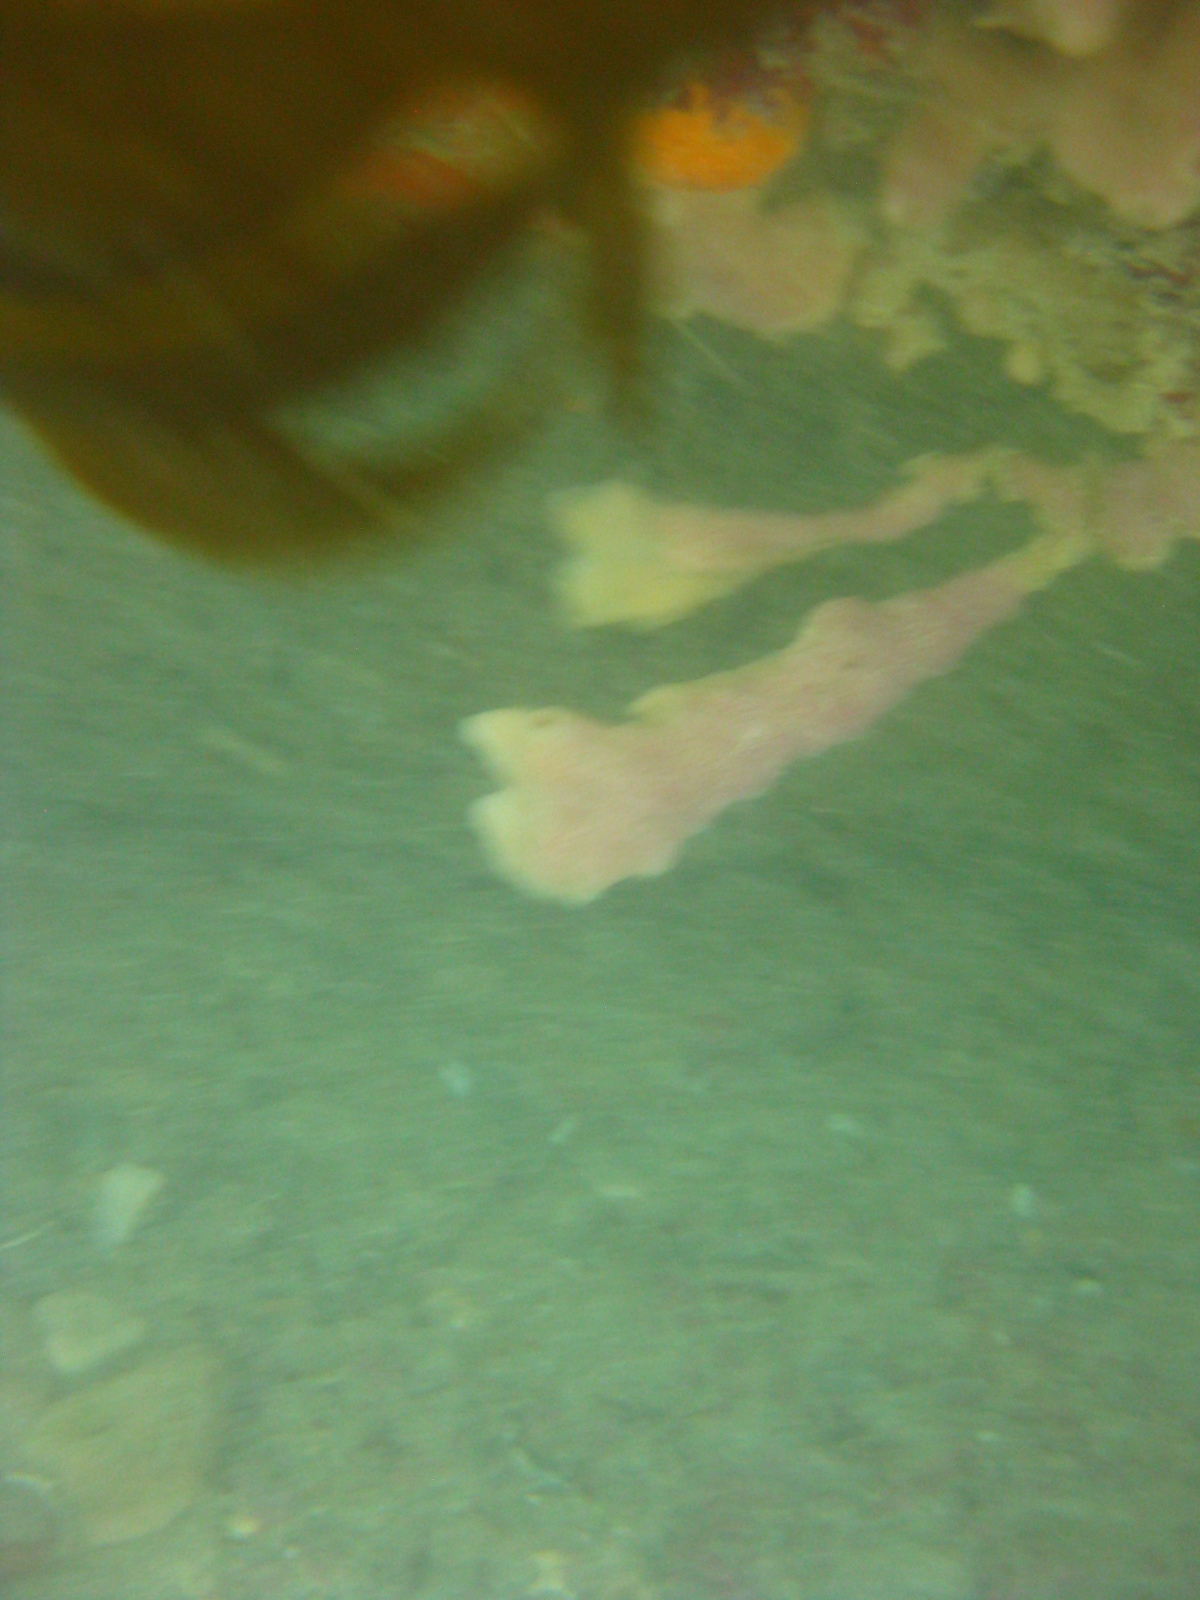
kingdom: Animalia
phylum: Porifera
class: Demospongiae
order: Haplosclerida
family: Callyspongiidae
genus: Callyspongia
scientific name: Callyspongia annulata
